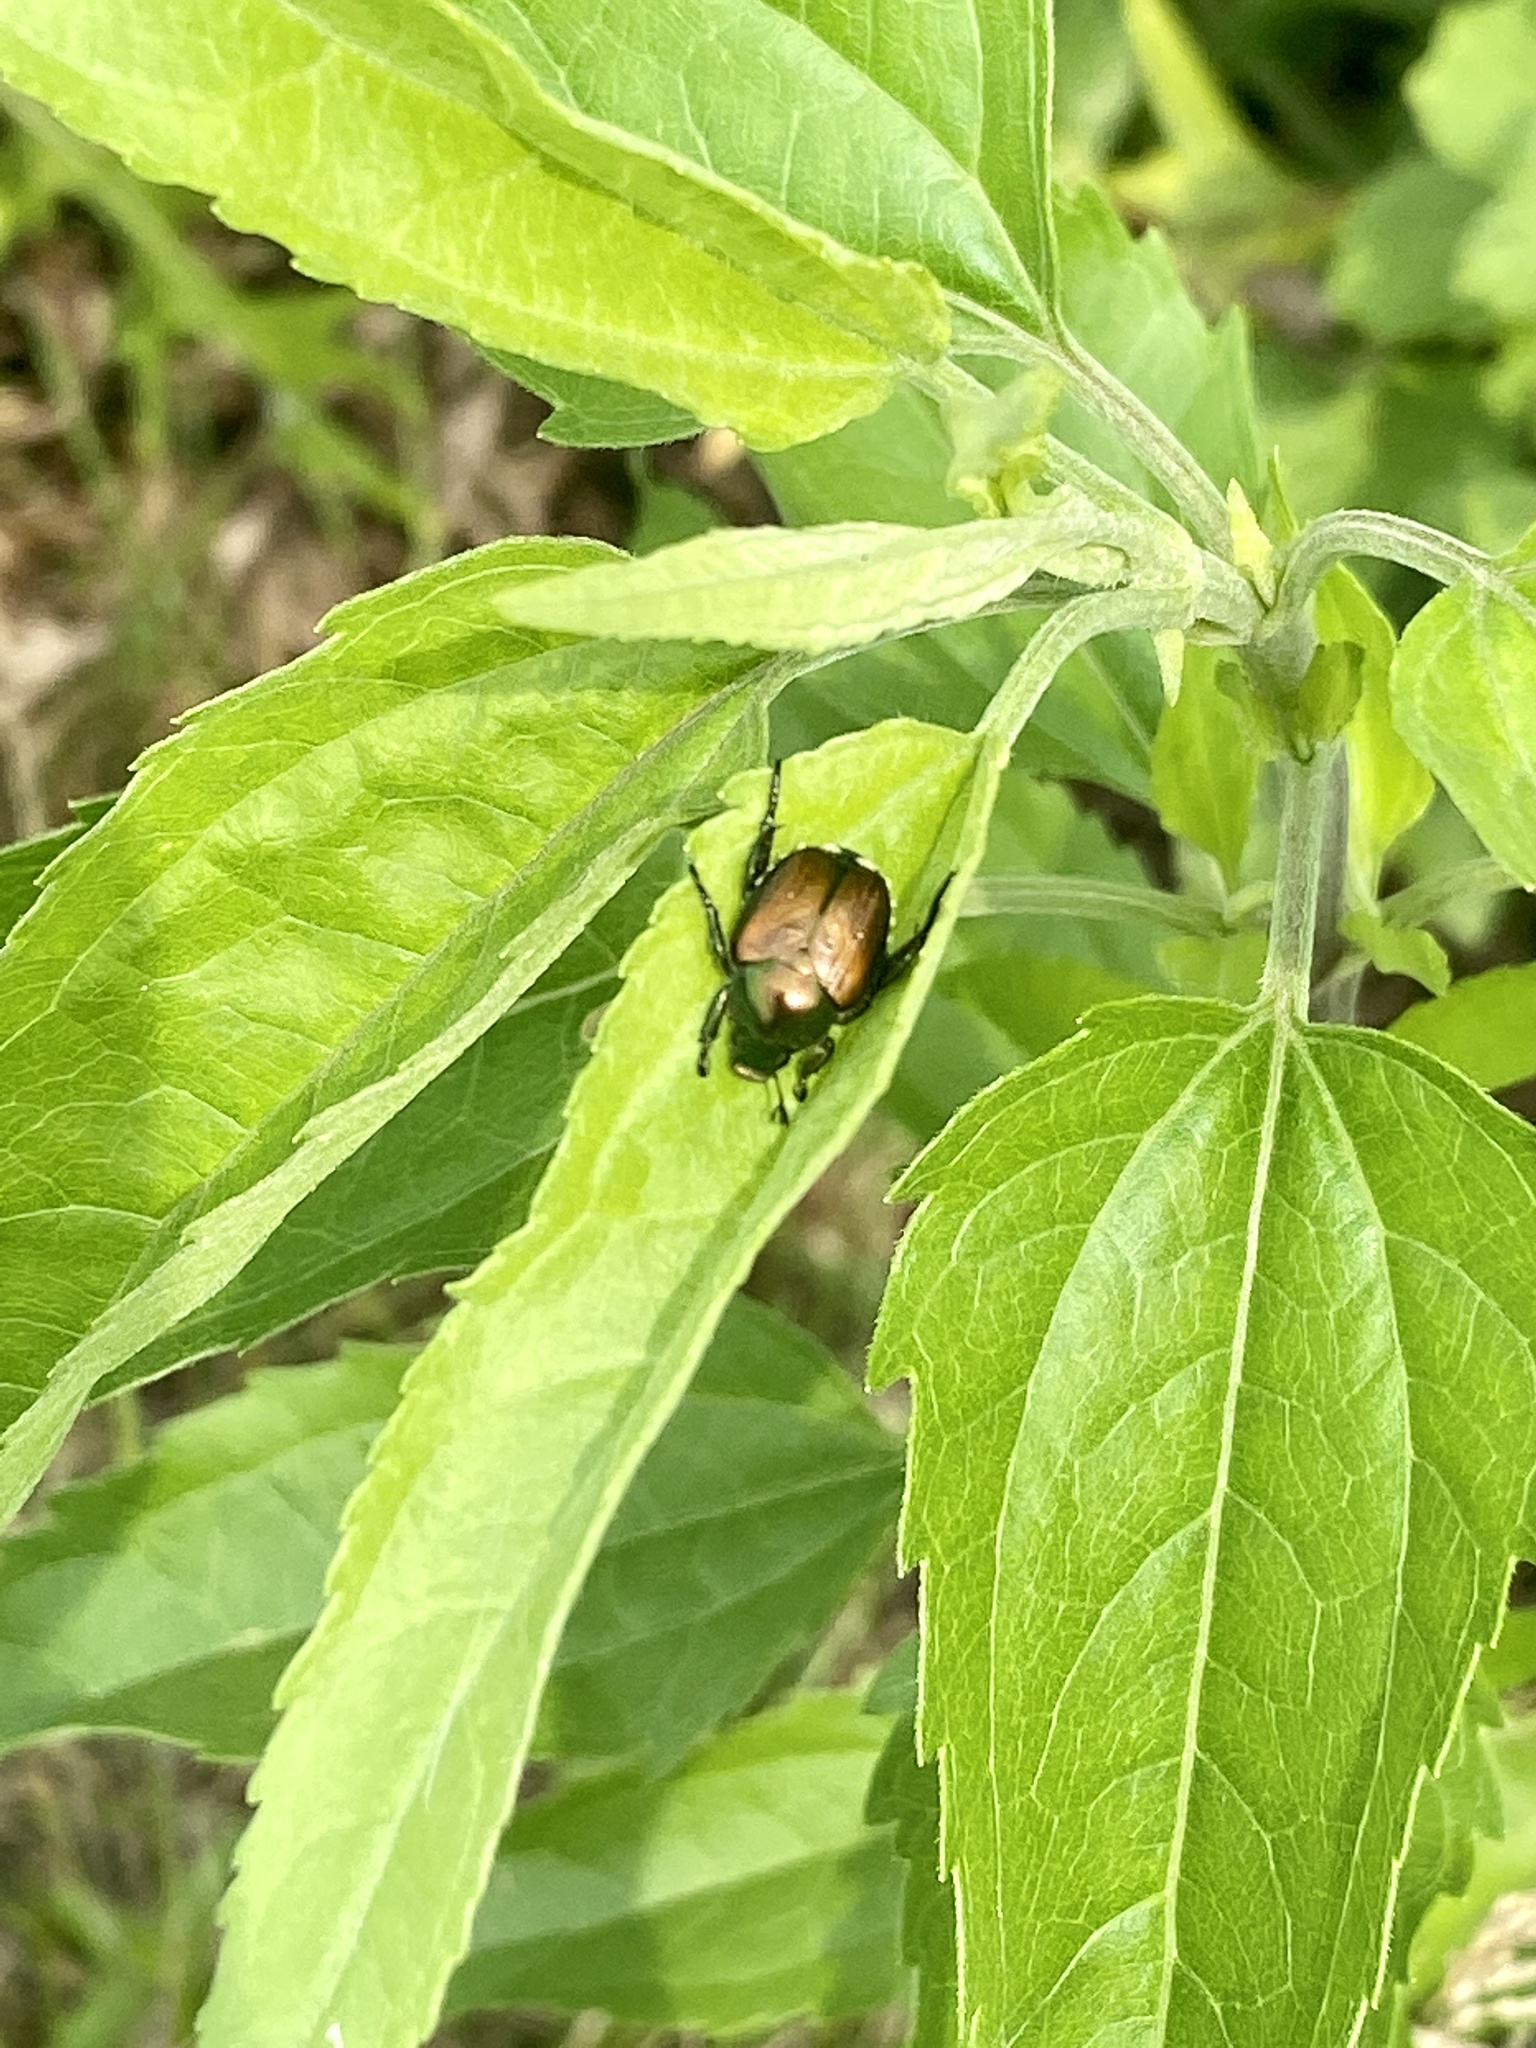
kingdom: Animalia
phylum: Arthropoda
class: Insecta
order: Coleoptera
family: Scarabaeidae
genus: Popillia
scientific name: Popillia japonica
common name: Japanese beetle
